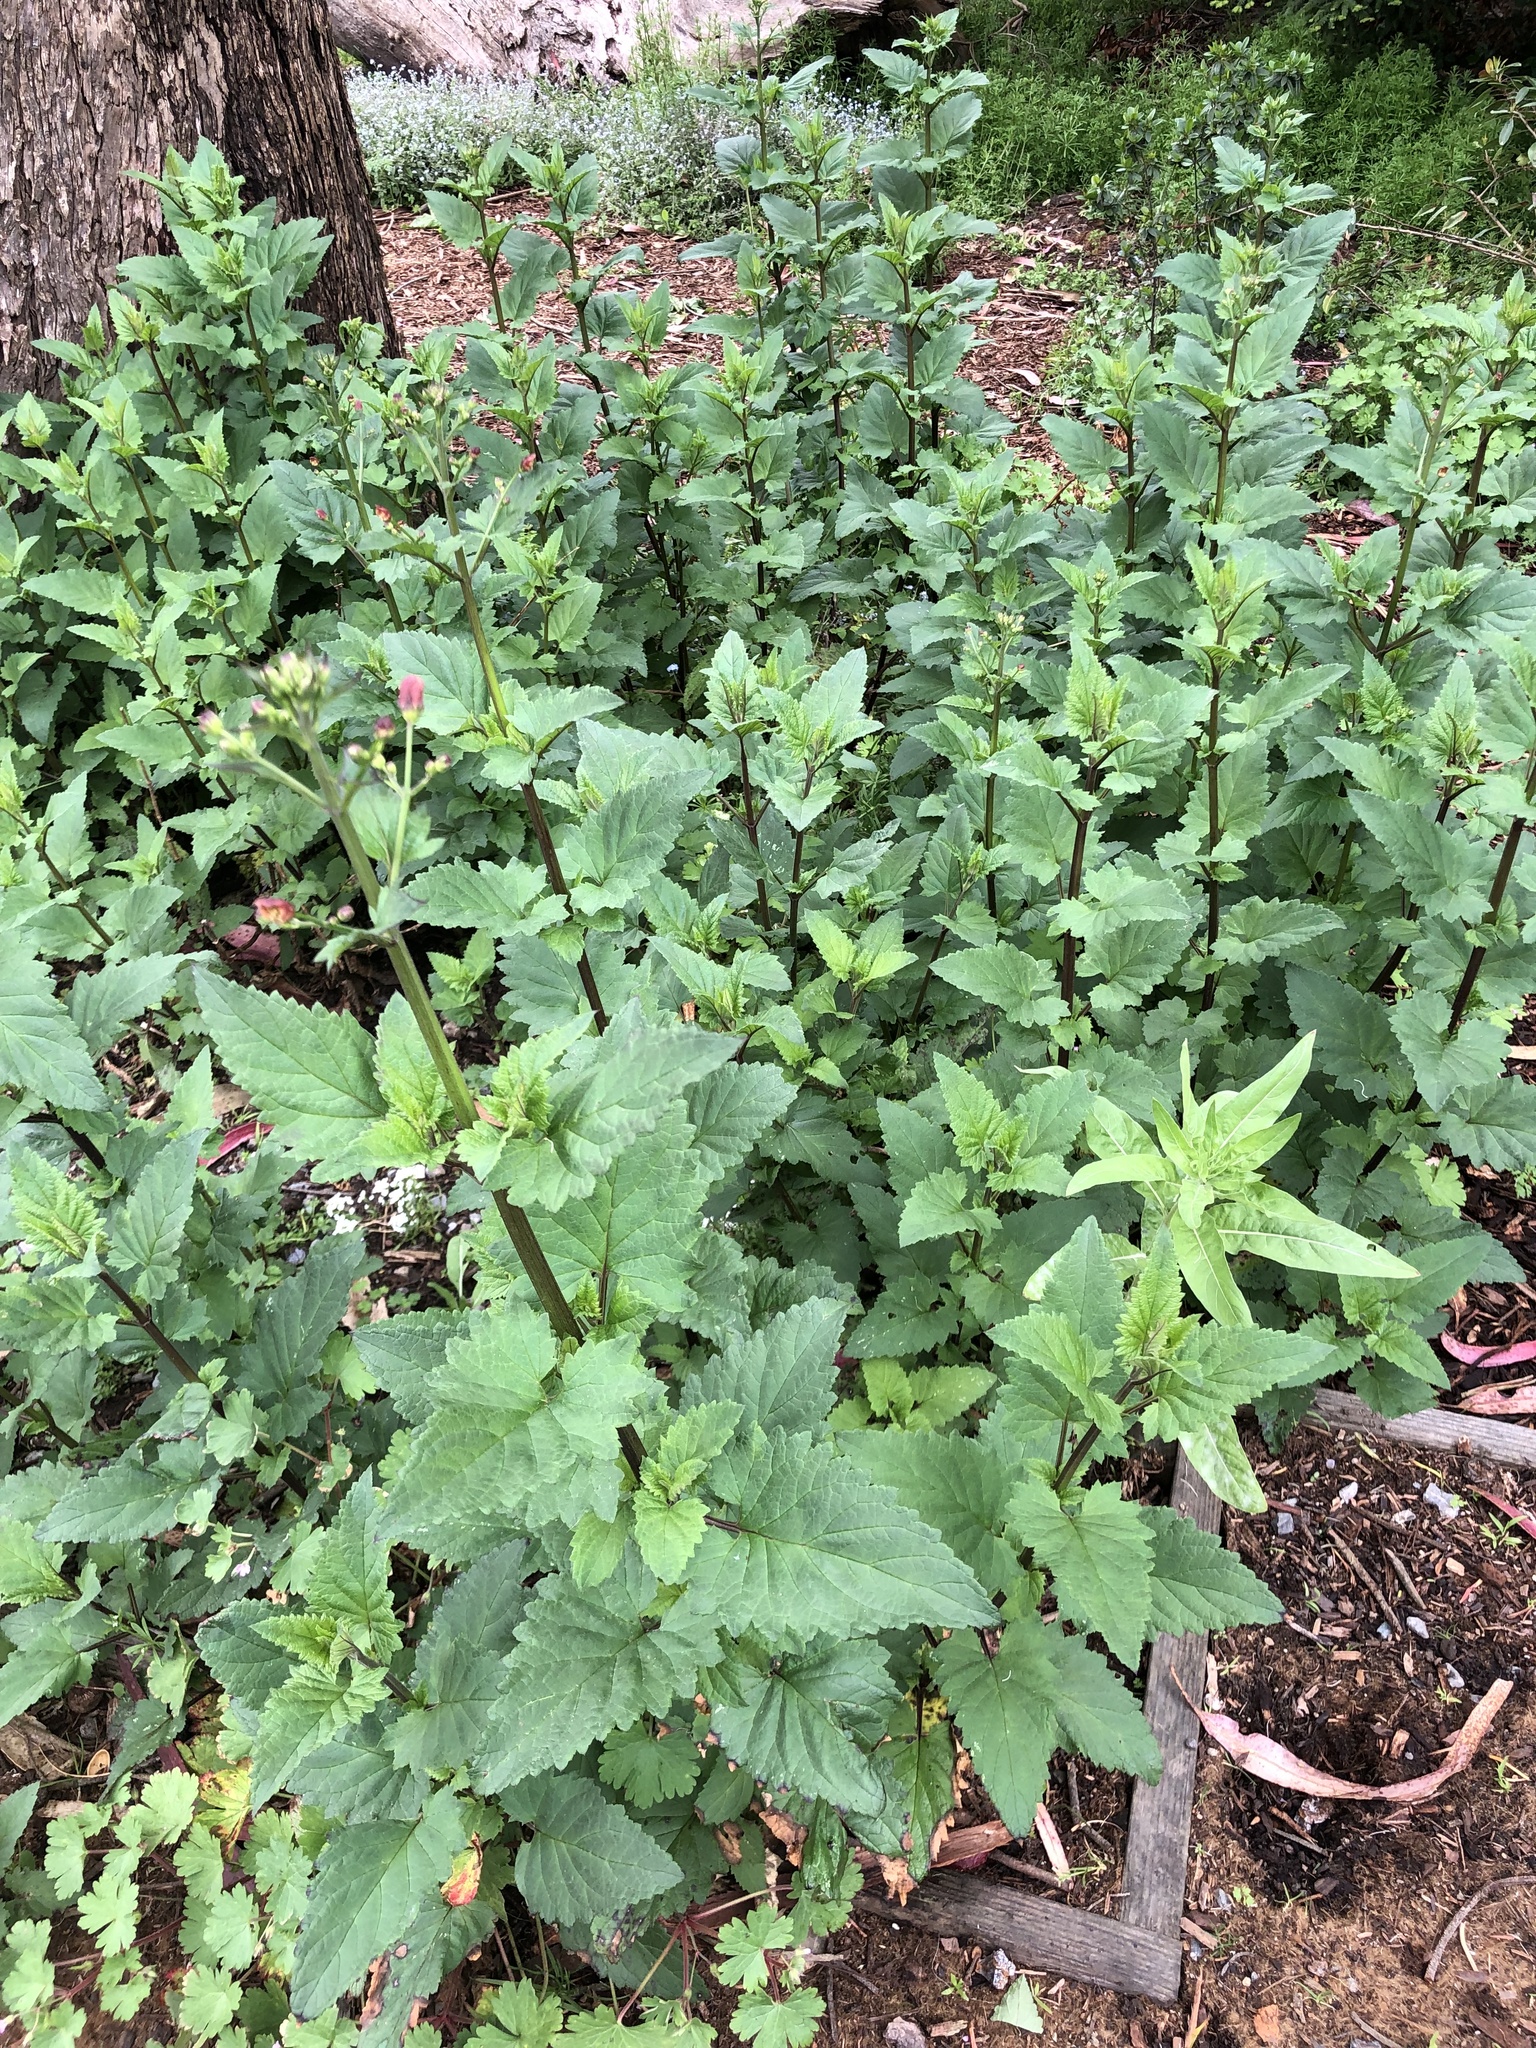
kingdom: Plantae
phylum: Tracheophyta
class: Magnoliopsida
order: Lamiales
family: Scrophulariaceae
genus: Scrophularia
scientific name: Scrophularia californica
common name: California figwort
